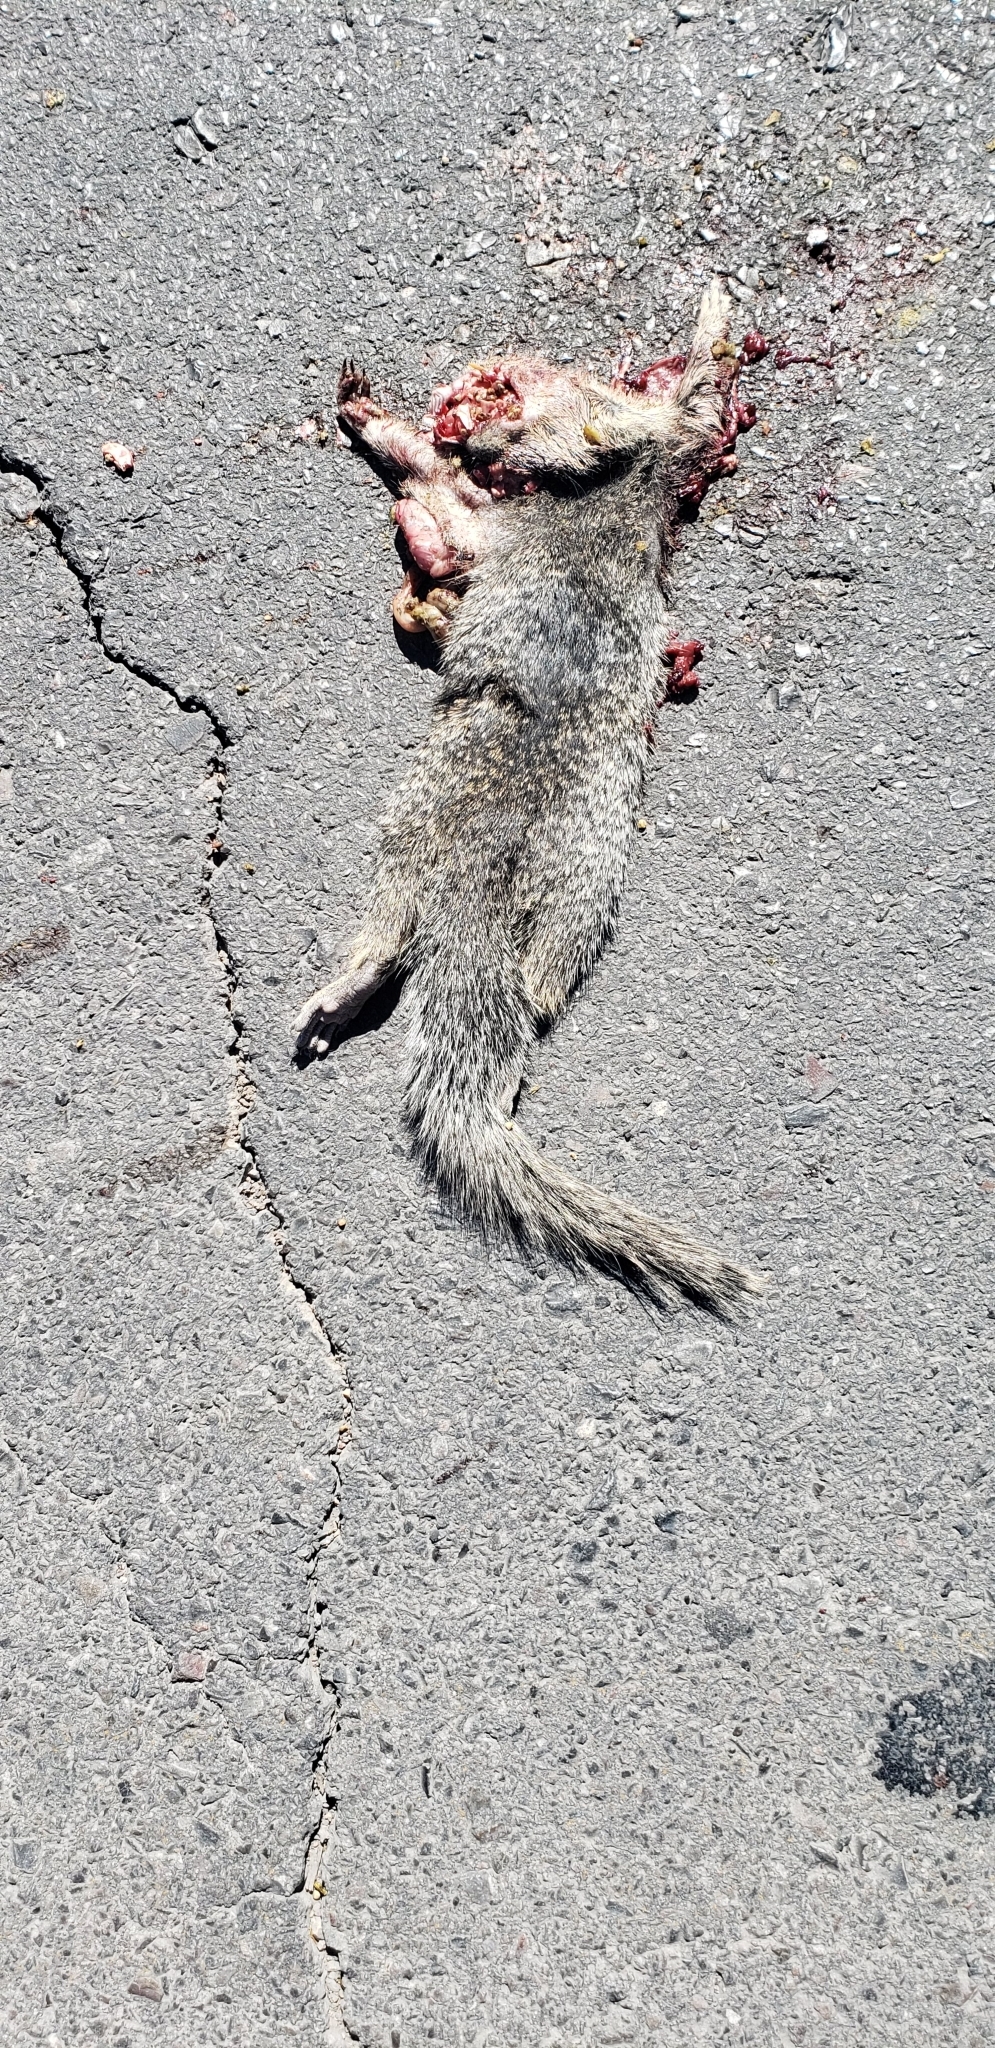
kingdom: Animalia
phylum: Chordata
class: Mammalia
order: Rodentia
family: Sciuridae
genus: Otospermophilus
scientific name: Otospermophilus variegatus
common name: Rock squirrel
